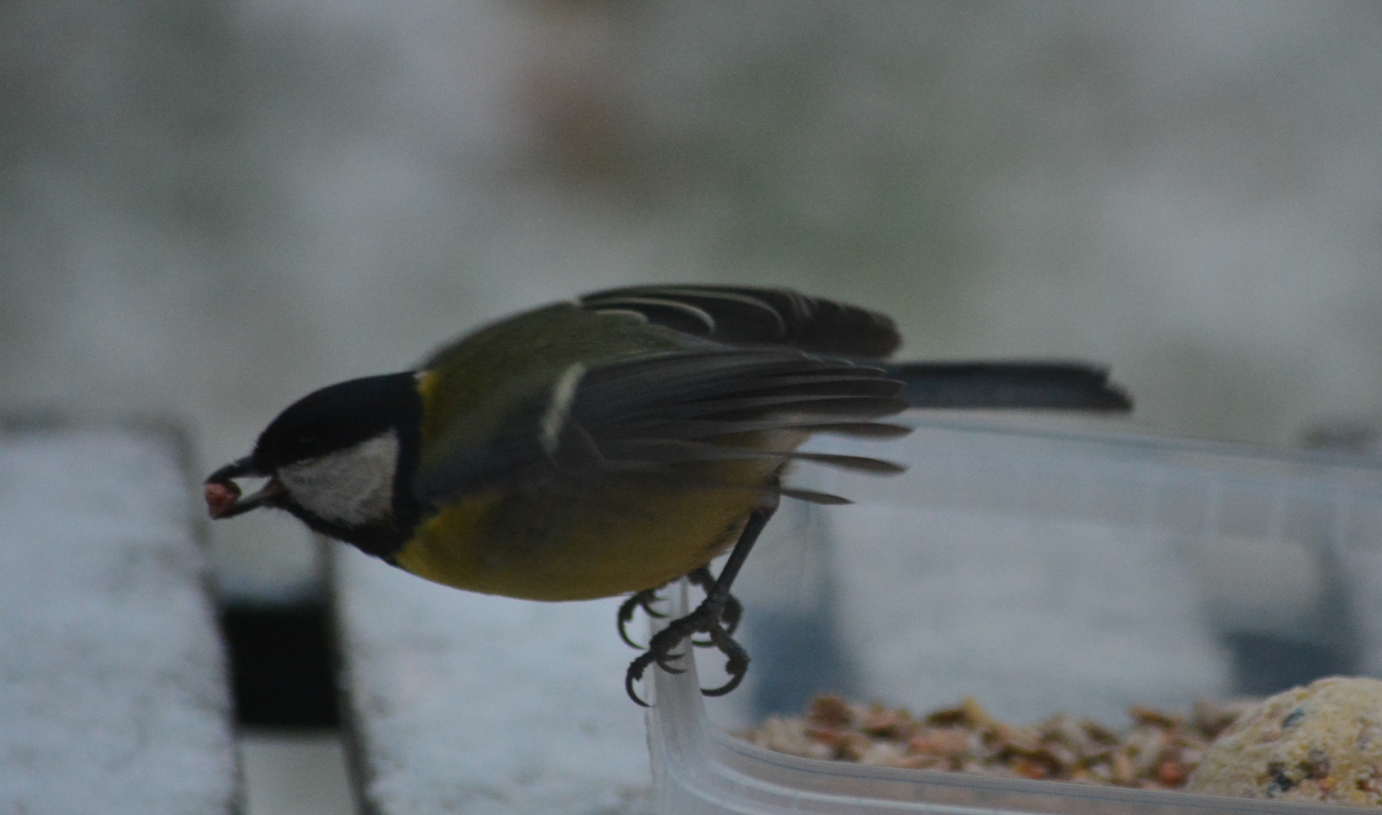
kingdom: Animalia
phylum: Chordata
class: Aves
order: Passeriformes
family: Paridae
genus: Parus
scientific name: Parus major
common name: Great tit
